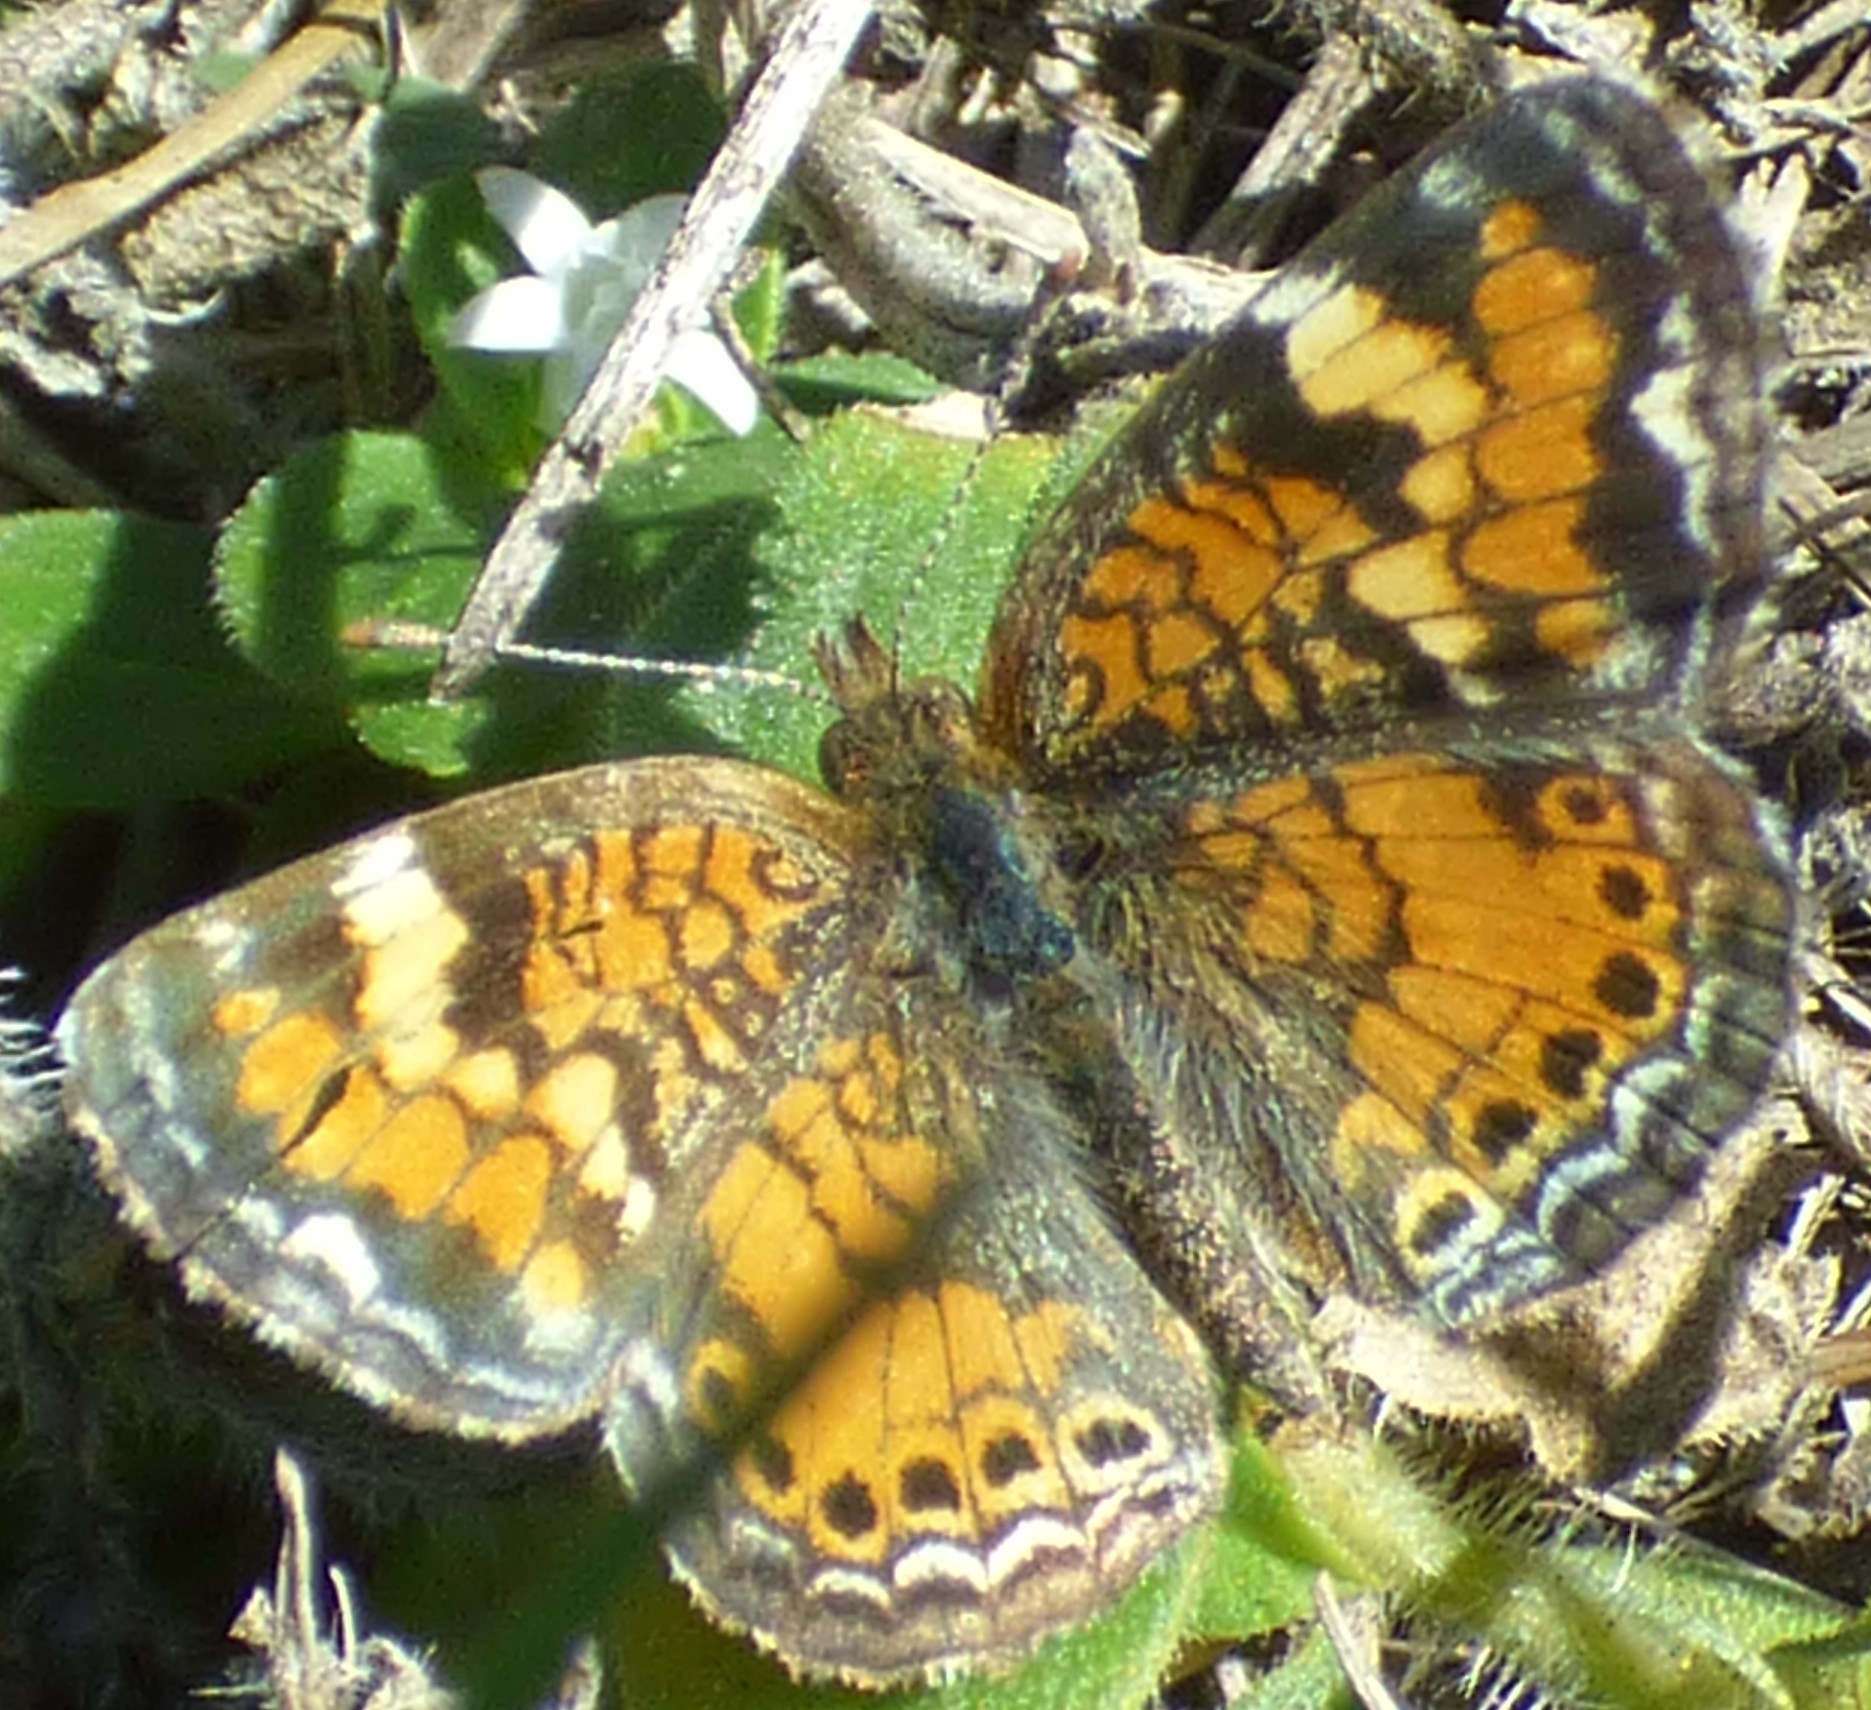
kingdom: Animalia
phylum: Arthropoda
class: Insecta
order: Lepidoptera
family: Nymphalidae
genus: Phyciodes
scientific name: Phyciodes phaon
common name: Phaon crescent
